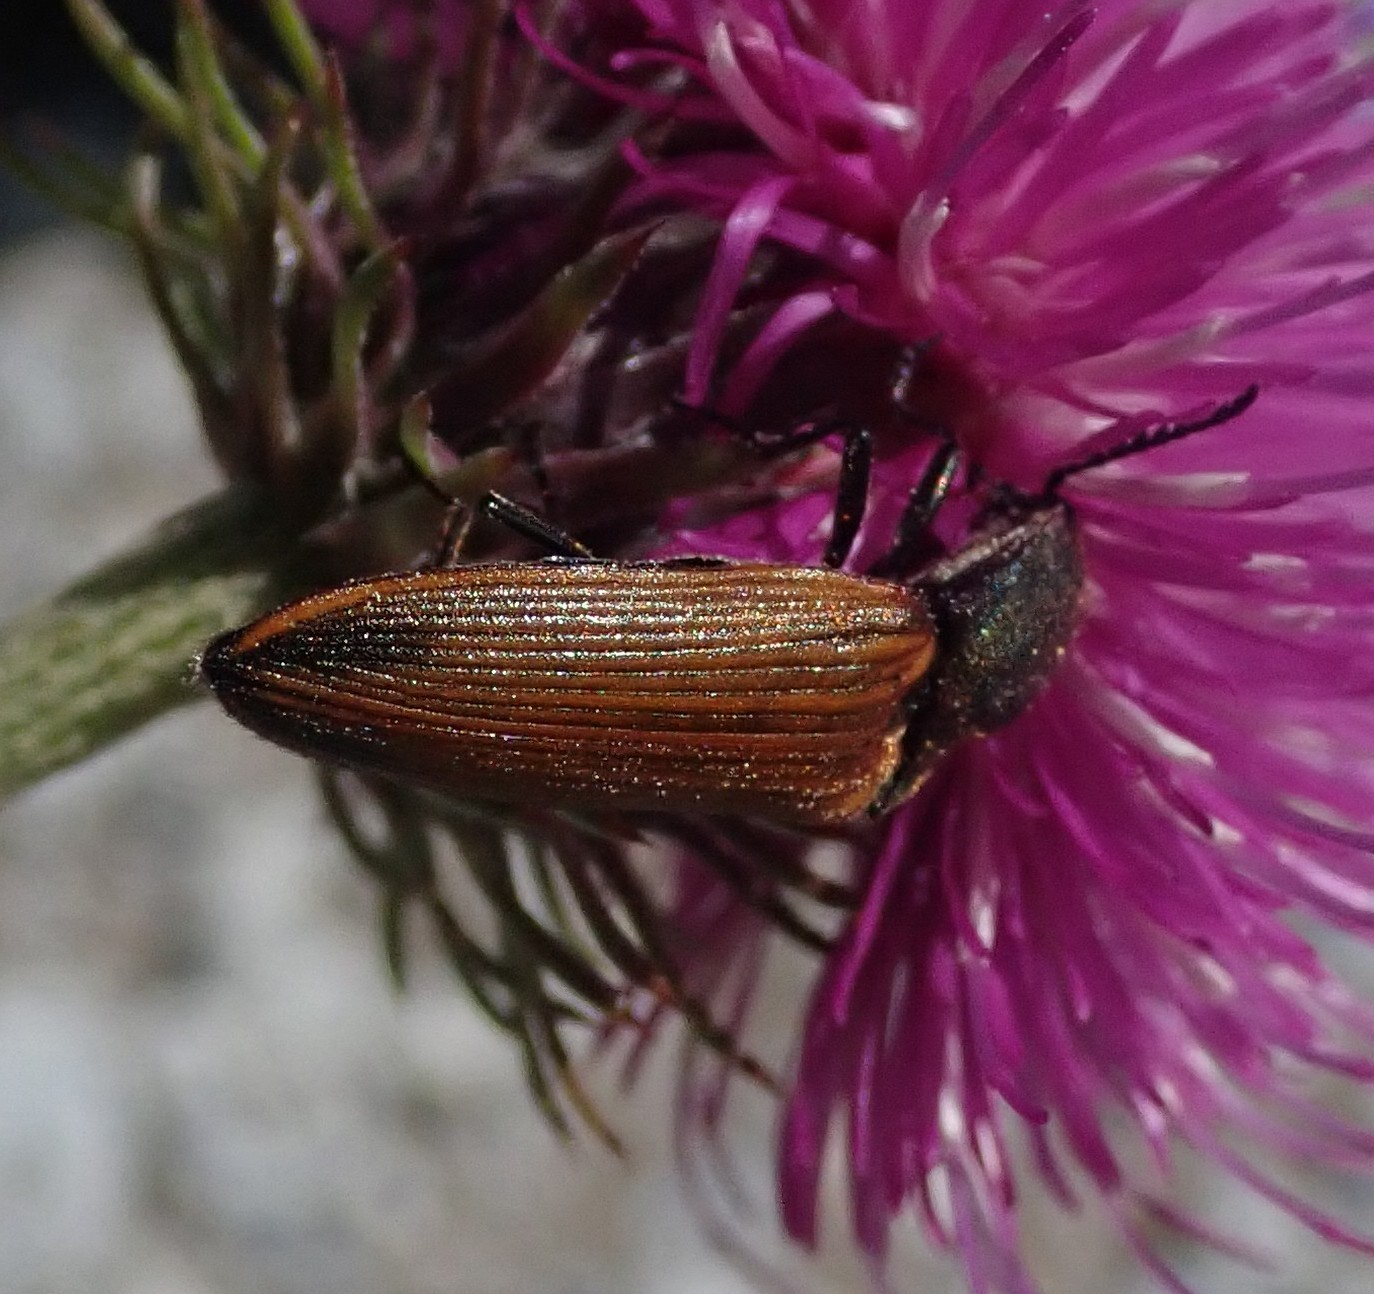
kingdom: Animalia
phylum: Arthropoda
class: Insecta
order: Coleoptera
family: Elateridae
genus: Ctenicera
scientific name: Ctenicera virens
